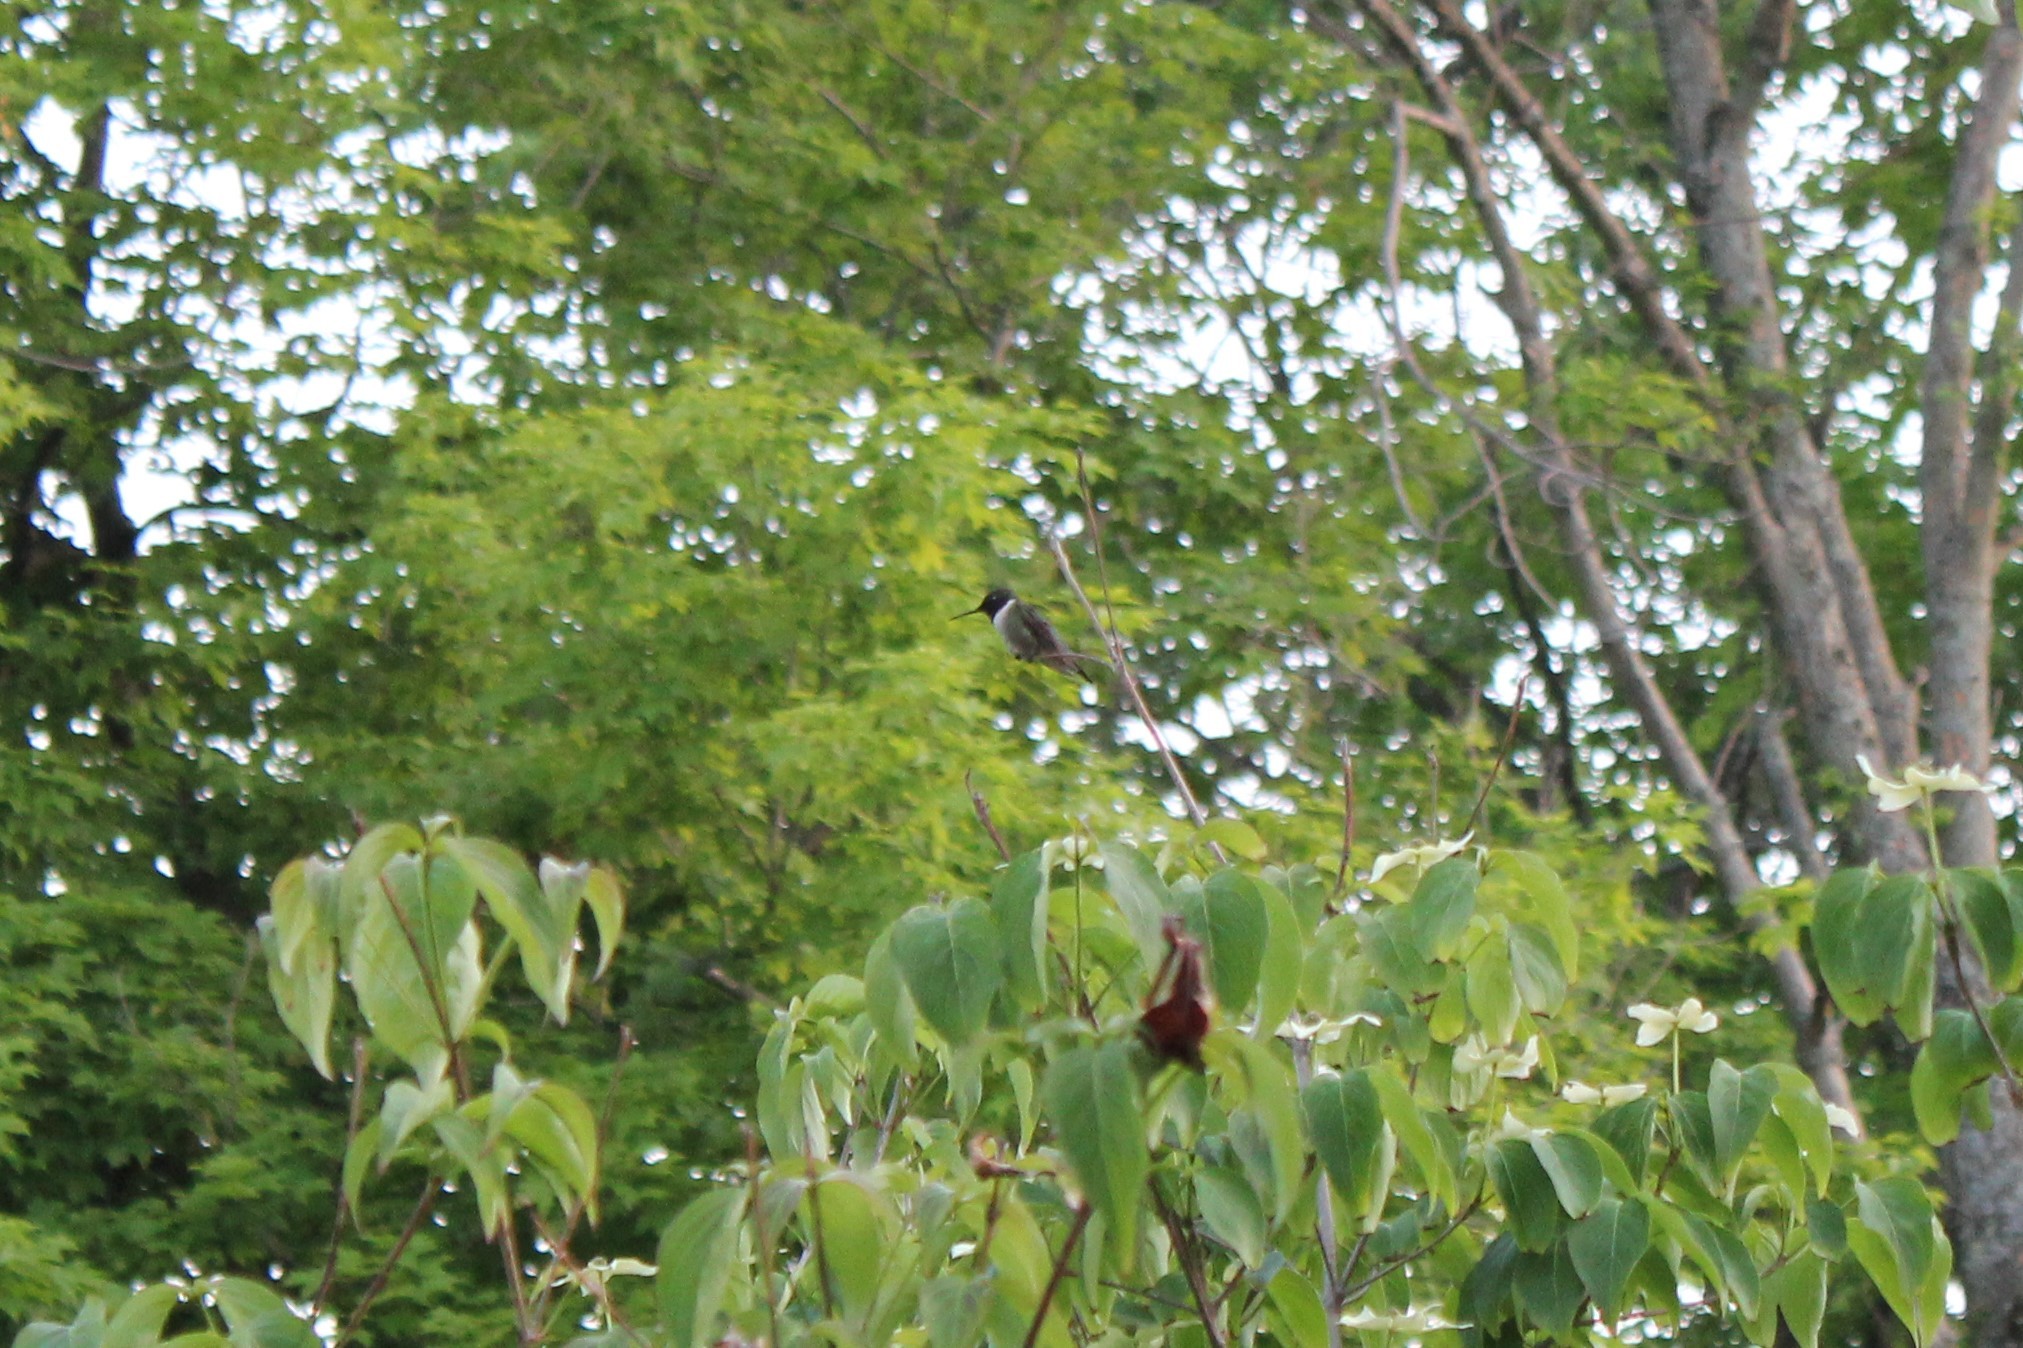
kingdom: Animalia
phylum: Chordata
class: Aves
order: Apodiformes
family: Trochilidae
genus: Archilochus
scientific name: Archilochus colubris
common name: Ruby-throated hummingbird
